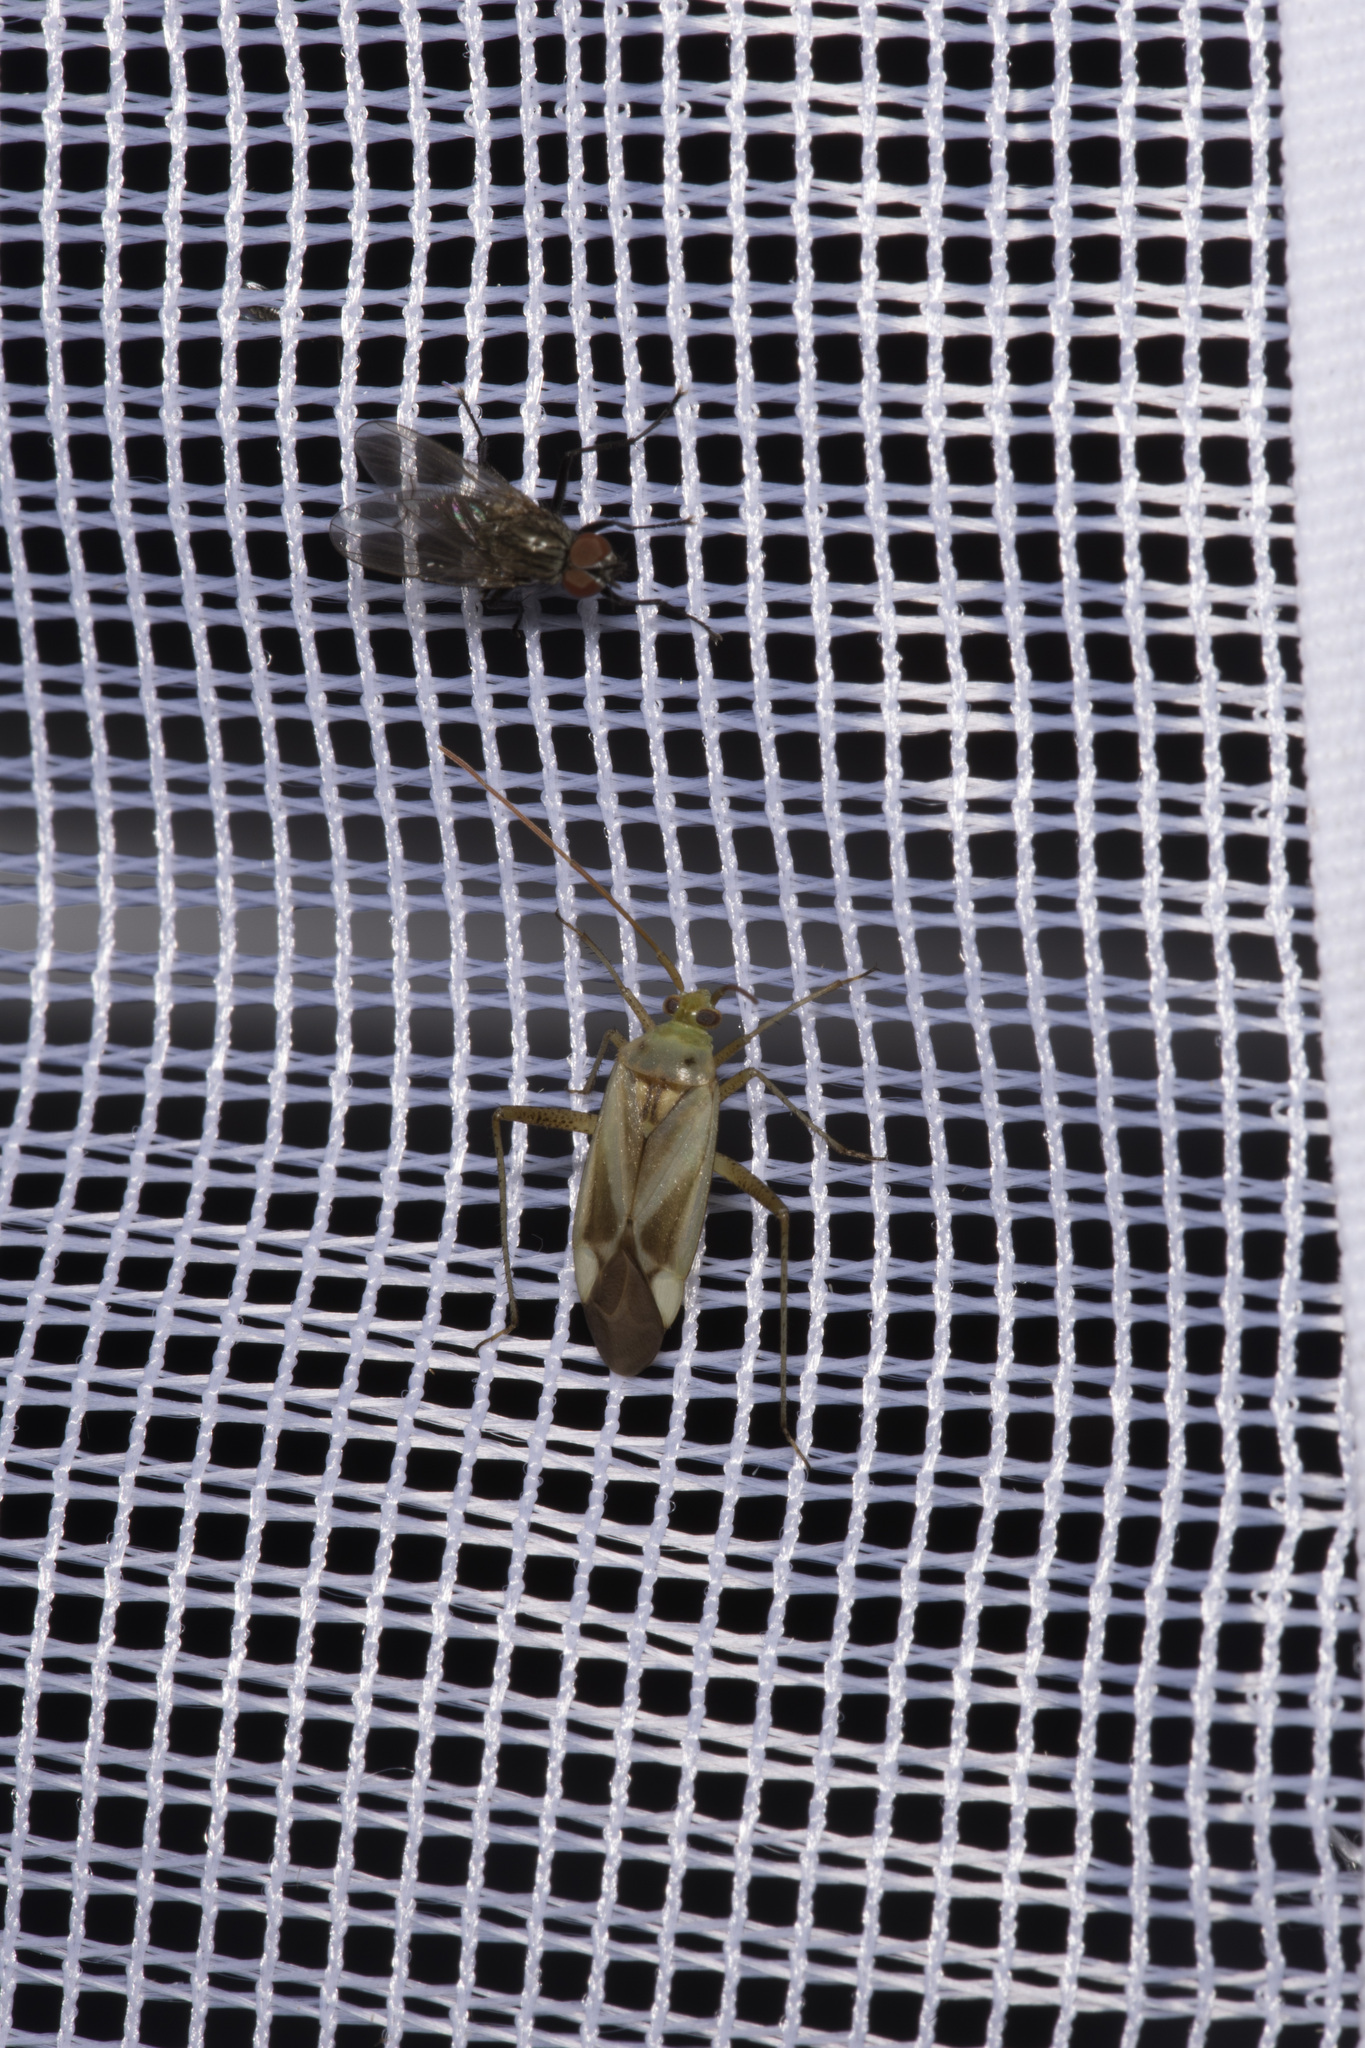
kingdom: Animalia
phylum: Arthropoda
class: Insecta
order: Hemiptera
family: Miridae
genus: Adelphocoris
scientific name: Adelphocoris lineolatus
